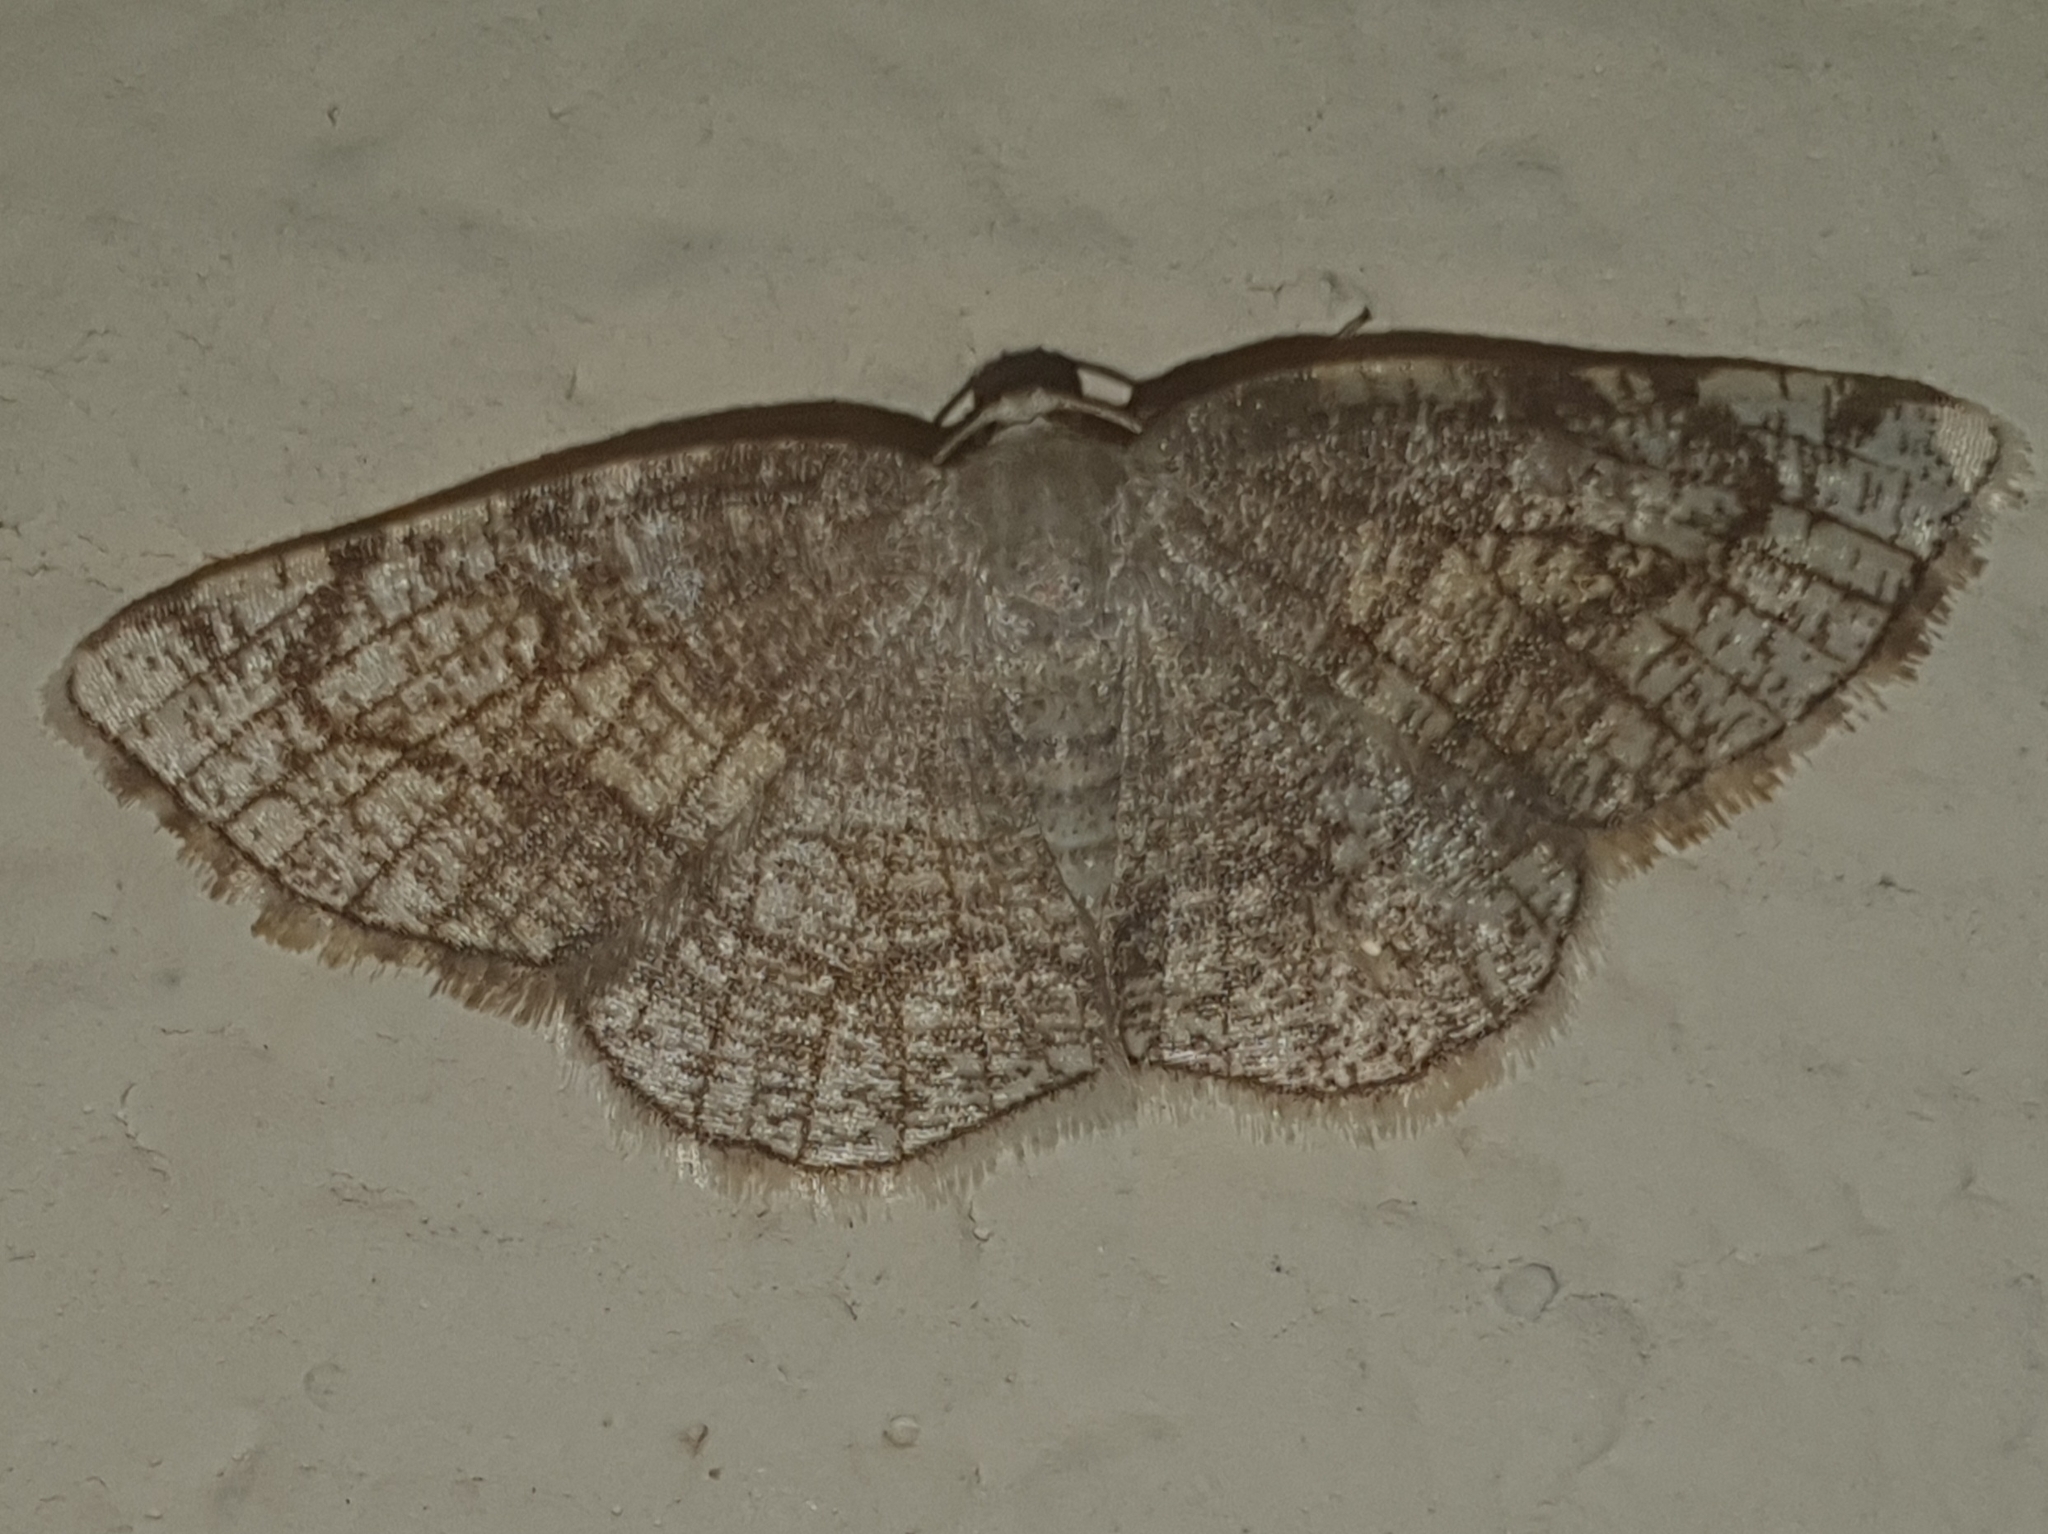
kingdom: Animalia
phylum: Arthropoda
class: Insecta
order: Lepidoptera
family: Geometridae
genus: Stegania
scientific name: Stegania trimaculata
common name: Dorset cream wave
